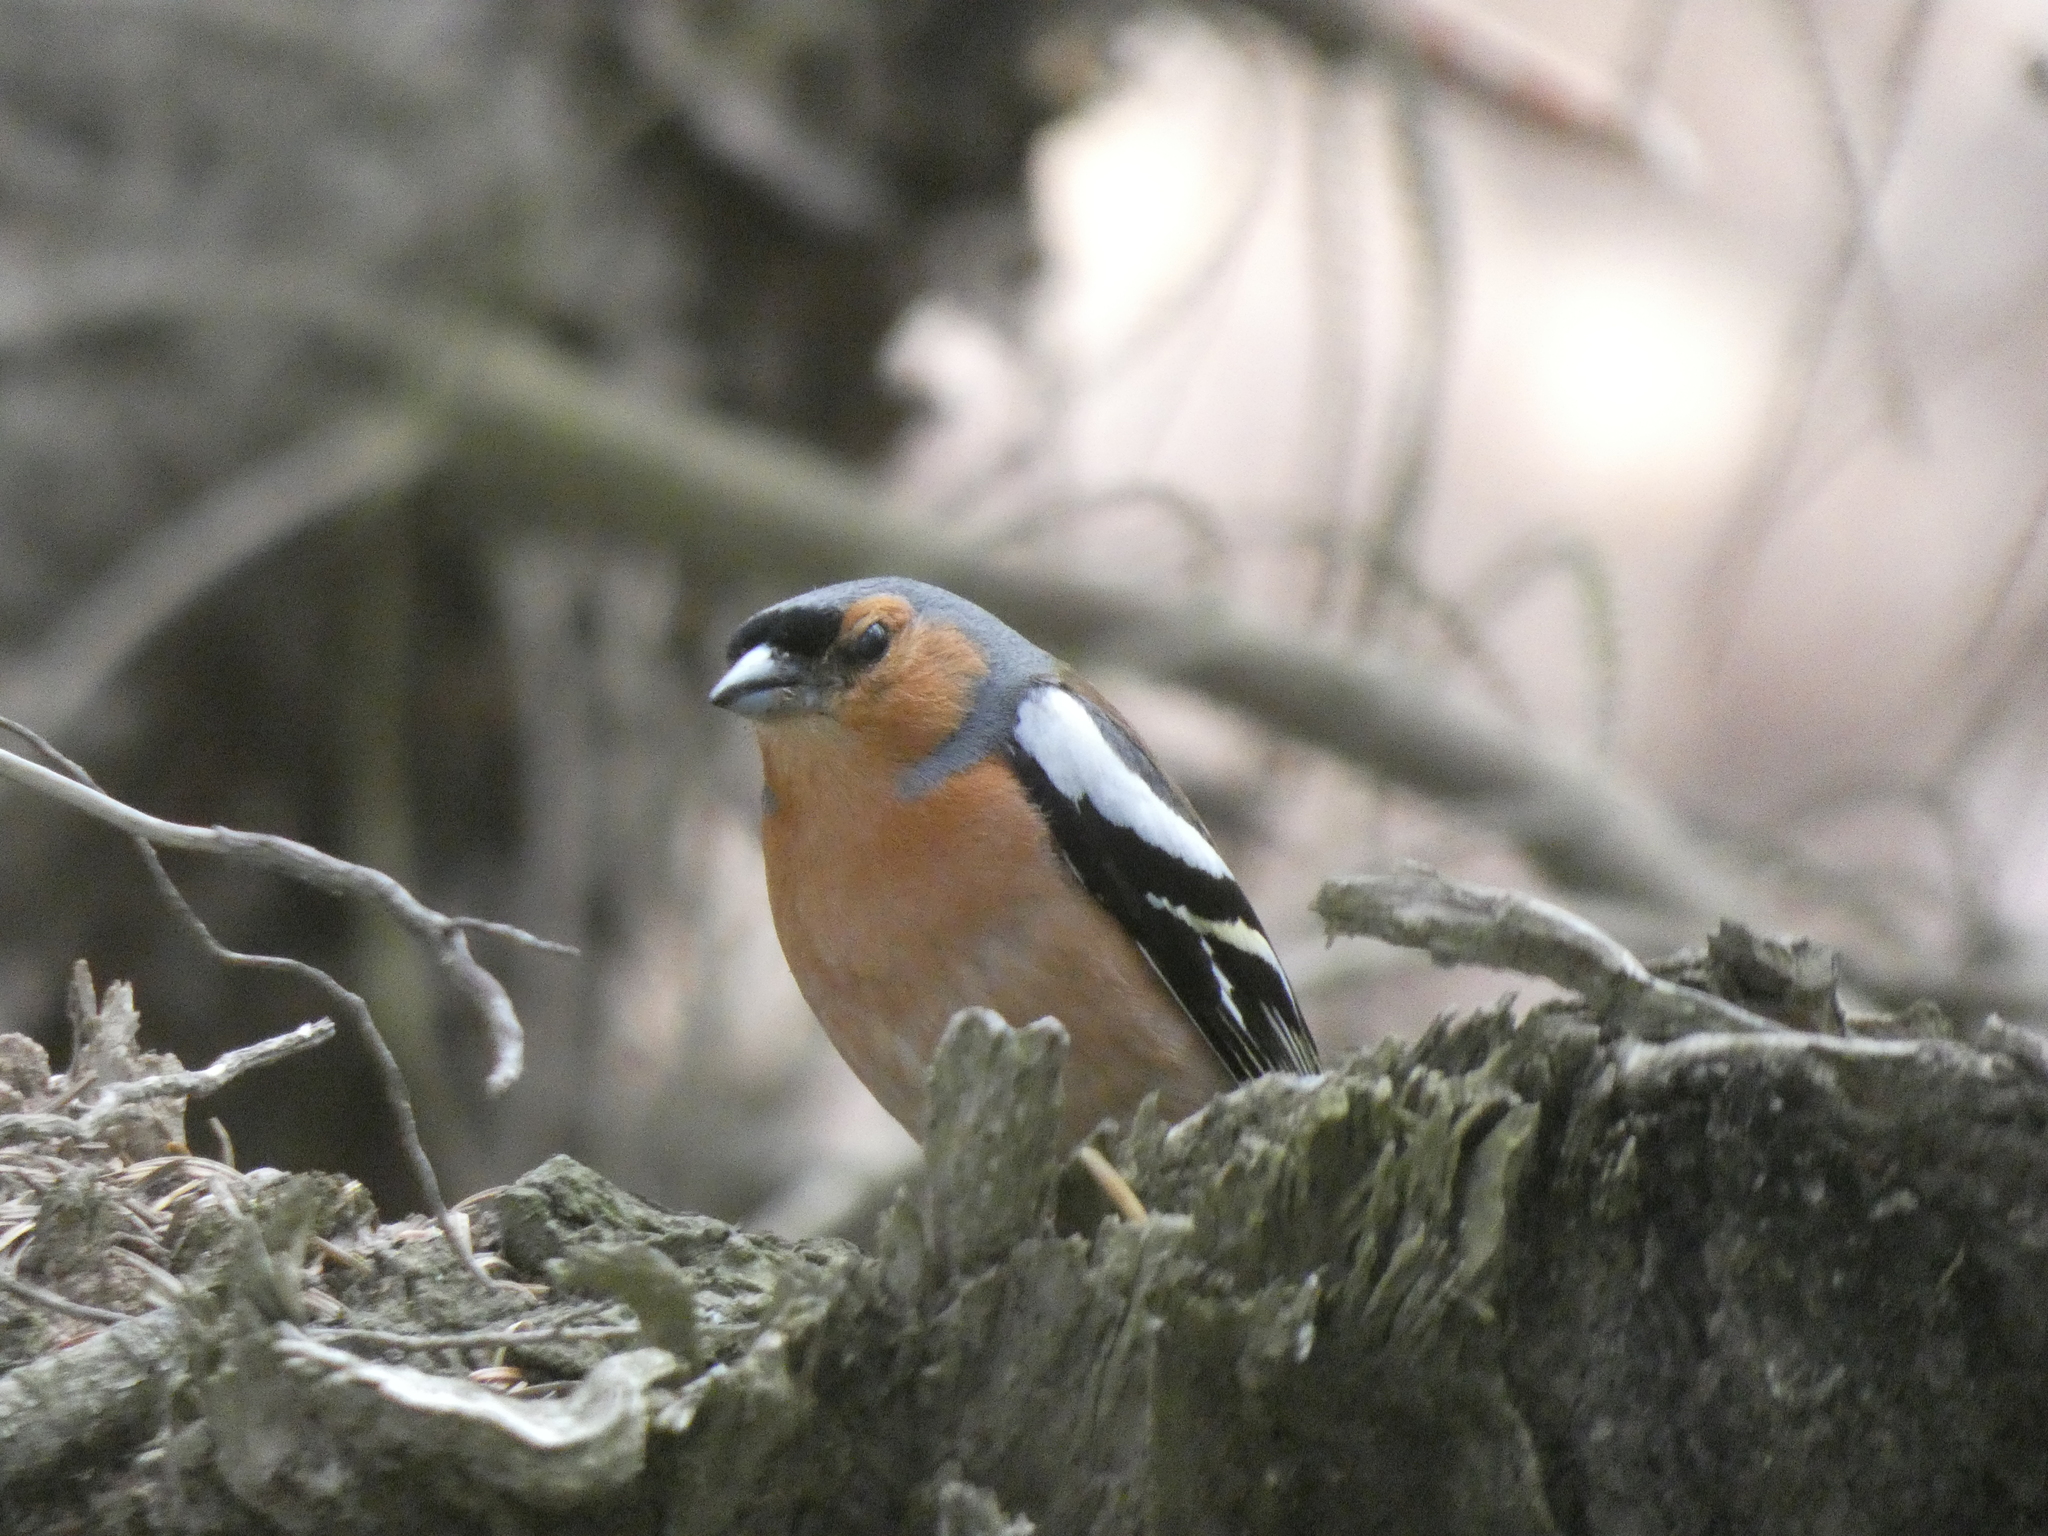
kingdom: Animalia
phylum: Chordata
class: Aves
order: Passeriformes
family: Fringillidae
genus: Fringilla
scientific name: Fringilla coelebs
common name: Common chaffinch
